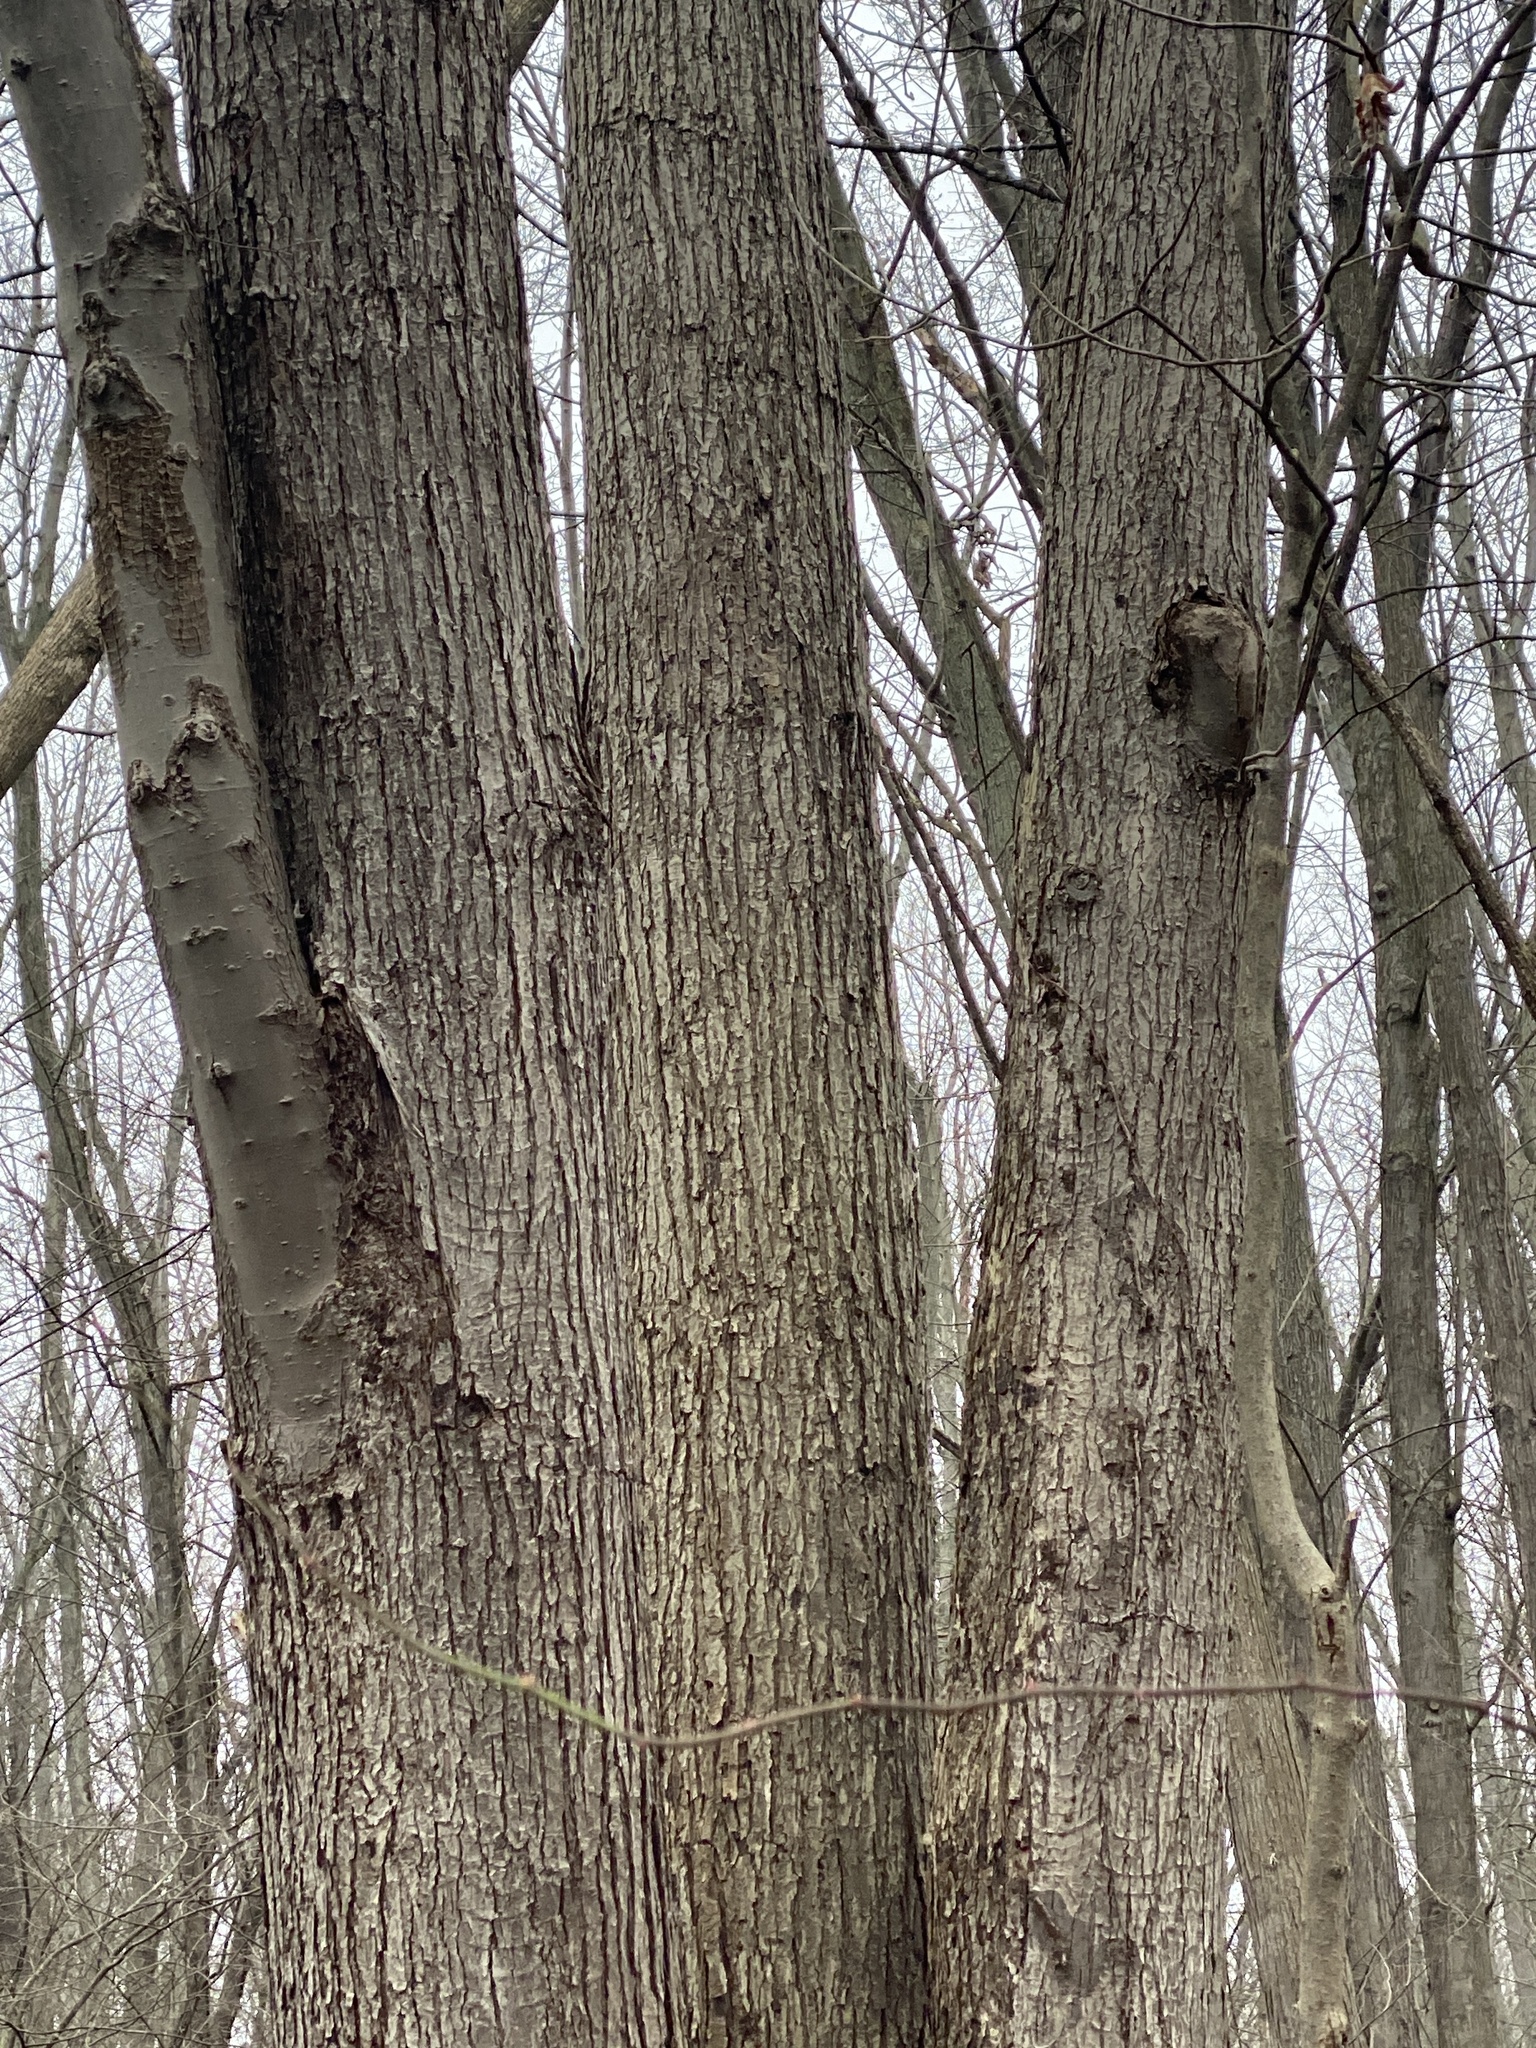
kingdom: Plantae
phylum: Tracheophyta
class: Magnoliopsida
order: Sapindales
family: Sapindaceae
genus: Acer
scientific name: Acer saccharinum
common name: Silver maple
